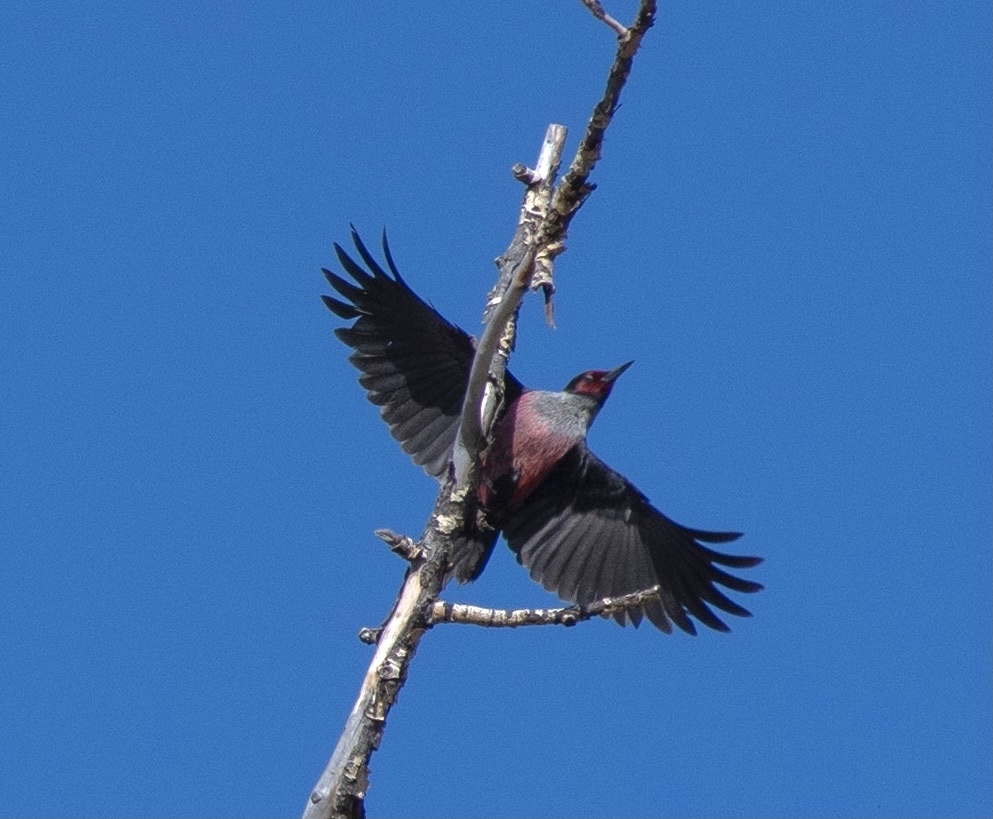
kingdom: Animalia
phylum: Chordata
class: Aves
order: Piciformes
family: Picidae
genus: Melanerpes
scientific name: Melanerpes lewis
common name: Lewis's woodpecker
